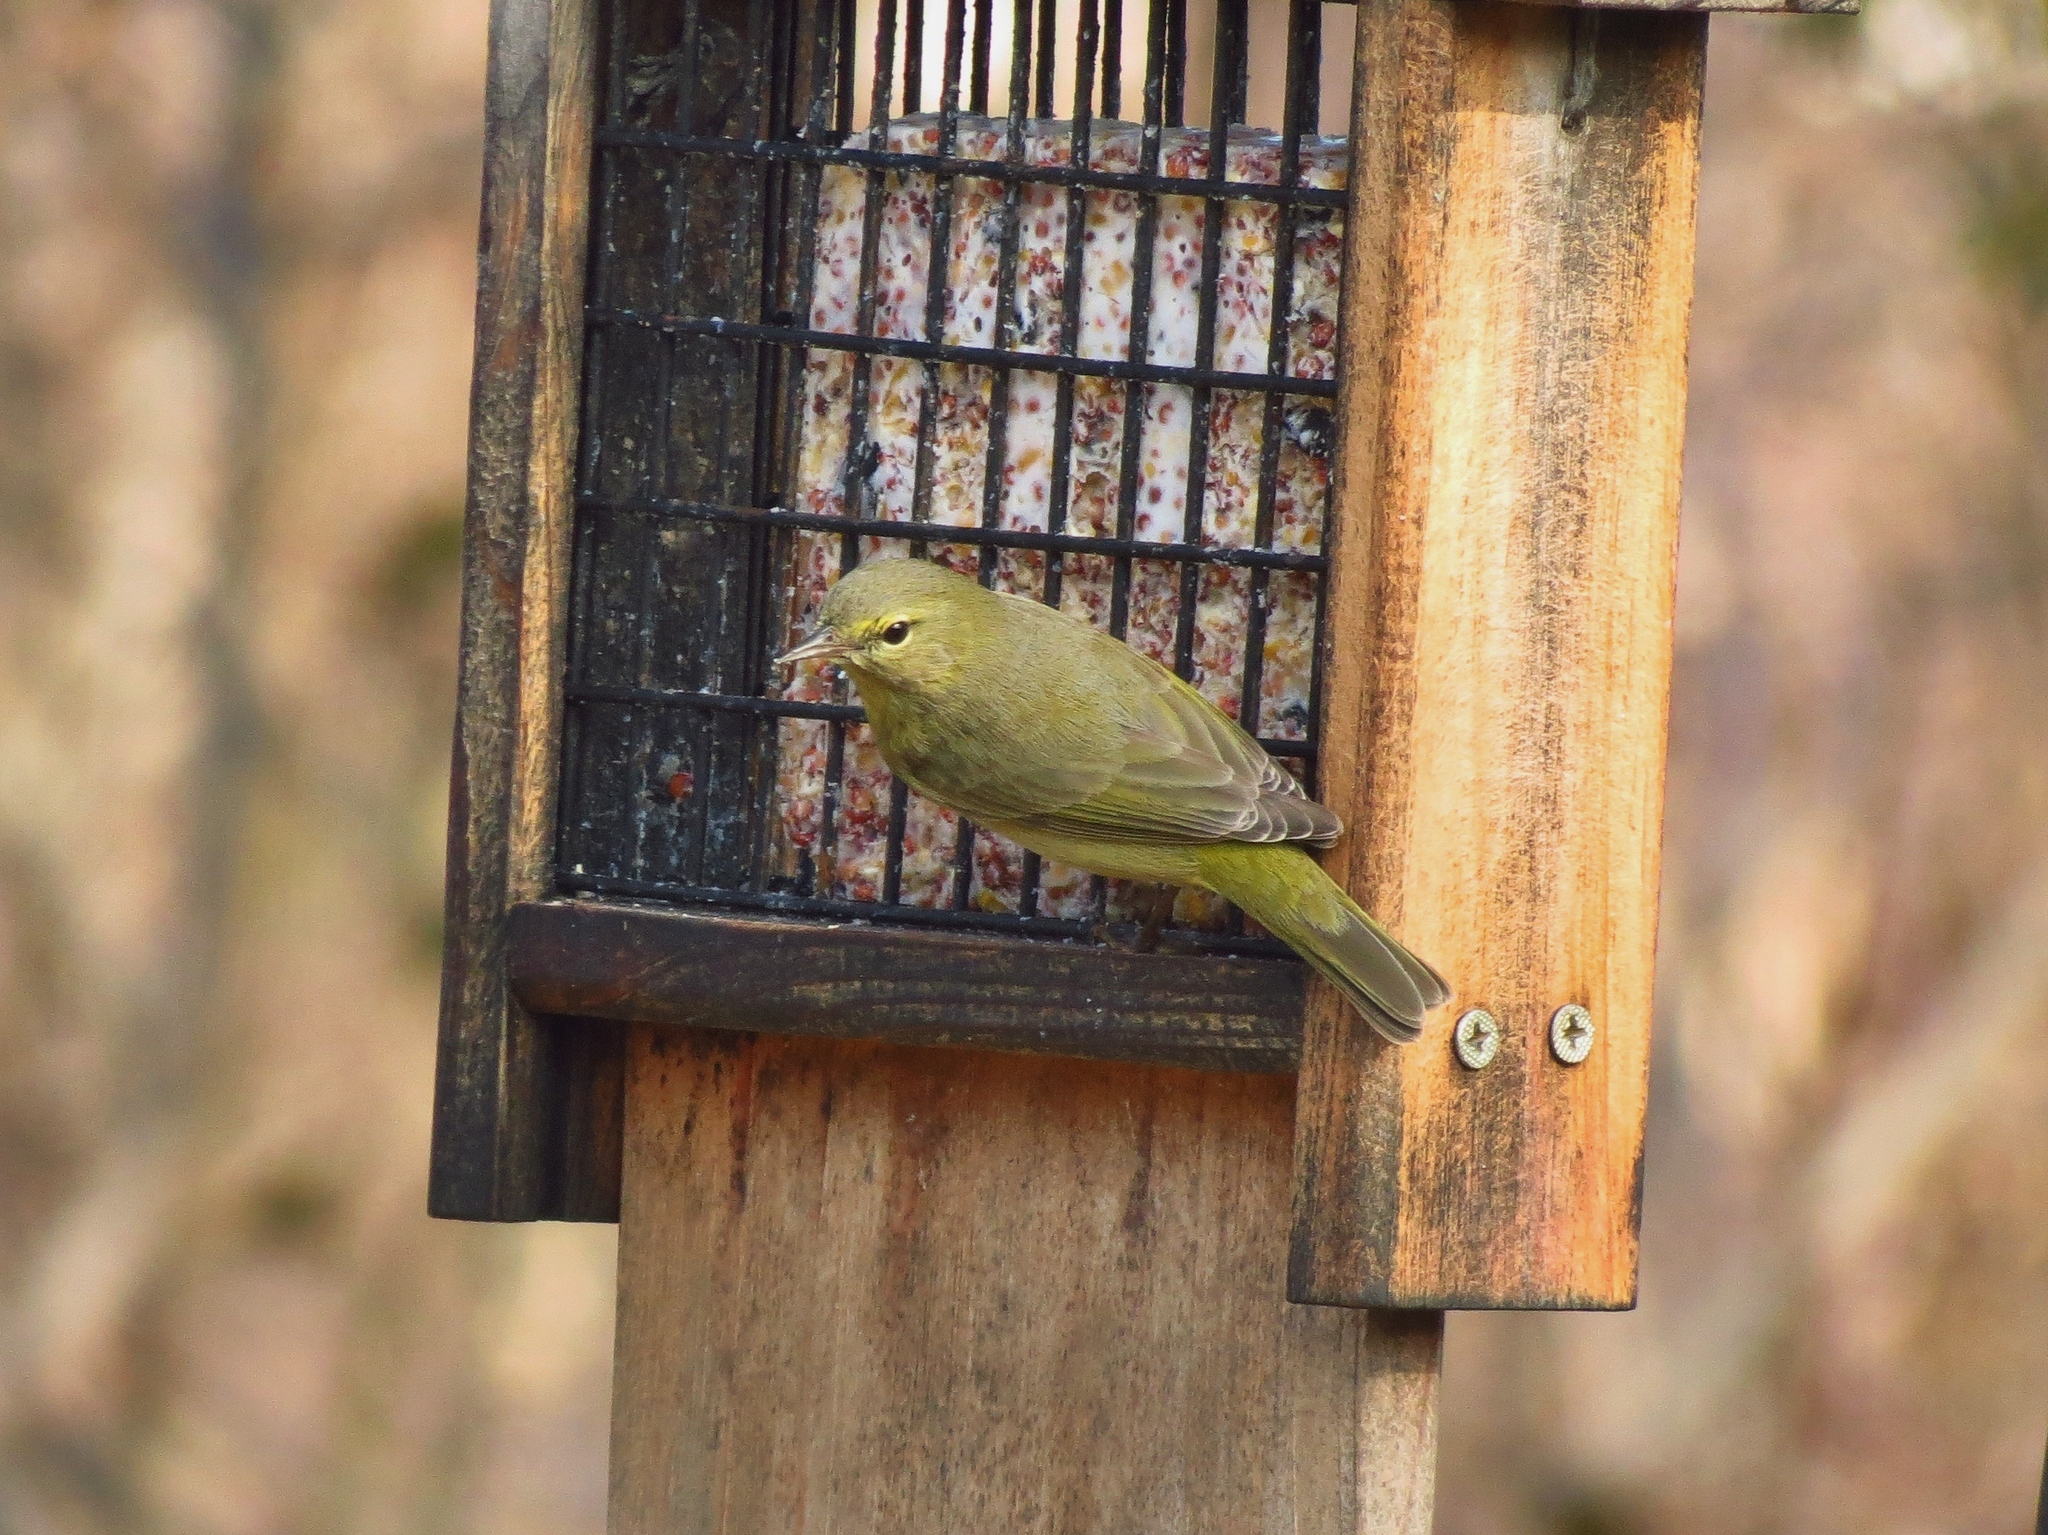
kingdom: Animalia
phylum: Chordata
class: Aves
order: Passeriformes
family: Parulidae
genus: Leiothlypis
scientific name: Leiothlypis celata
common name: Orange-crowned warbler
